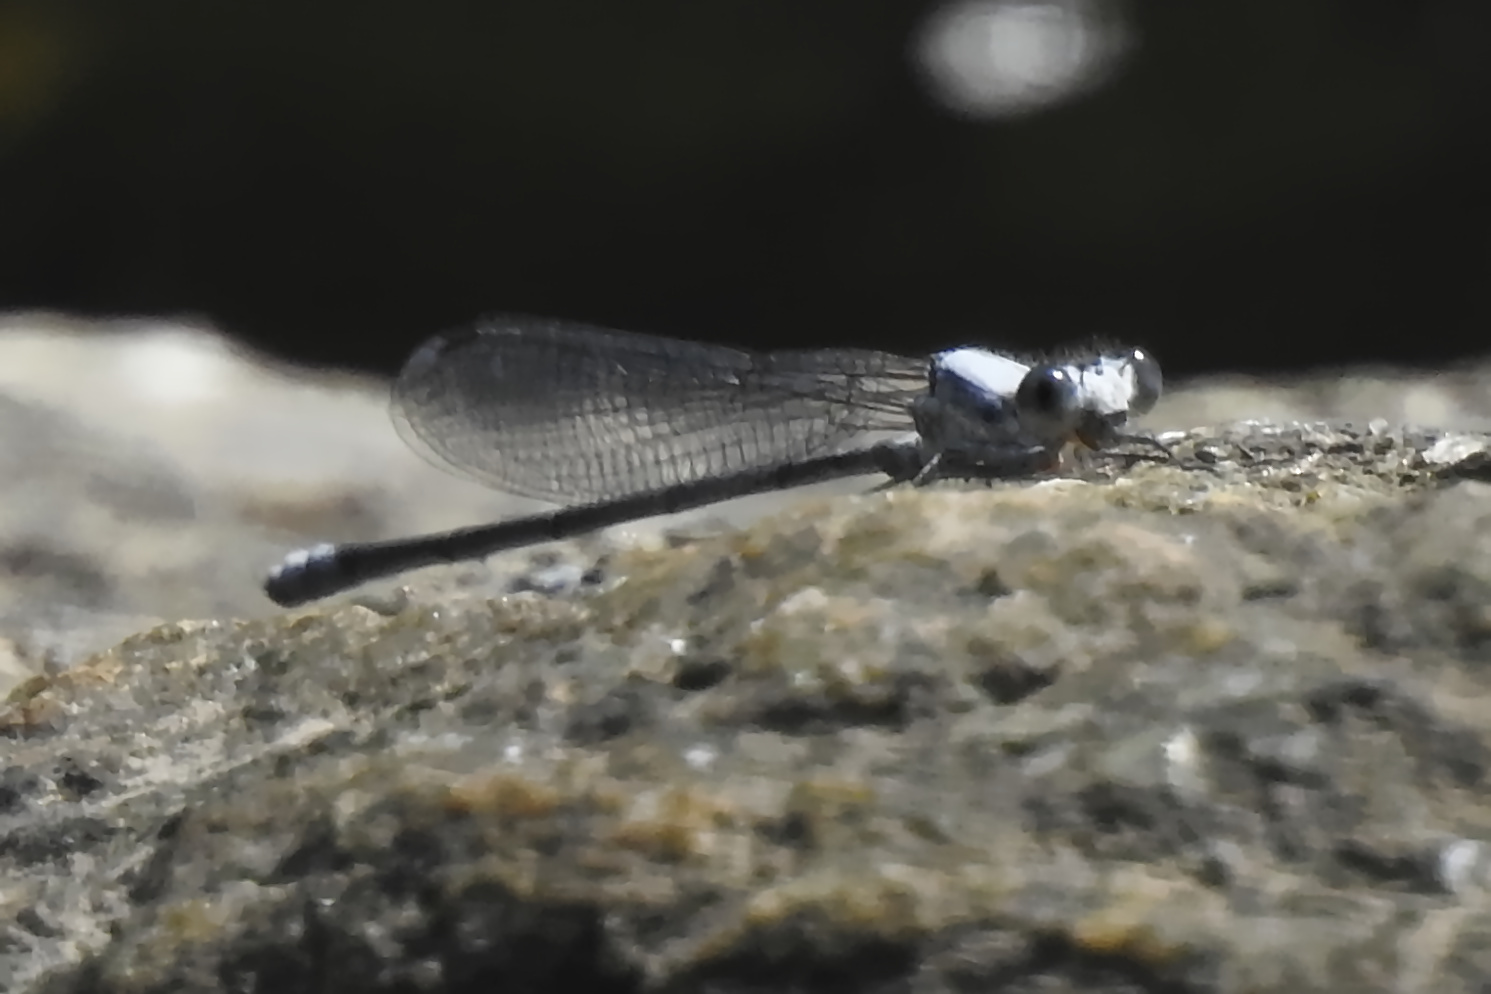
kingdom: Animalia
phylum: Arthropoda
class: Insecta
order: Odonata
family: Coenagrionidae
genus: Argia
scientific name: Argia moesta
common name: Powdered dancer
